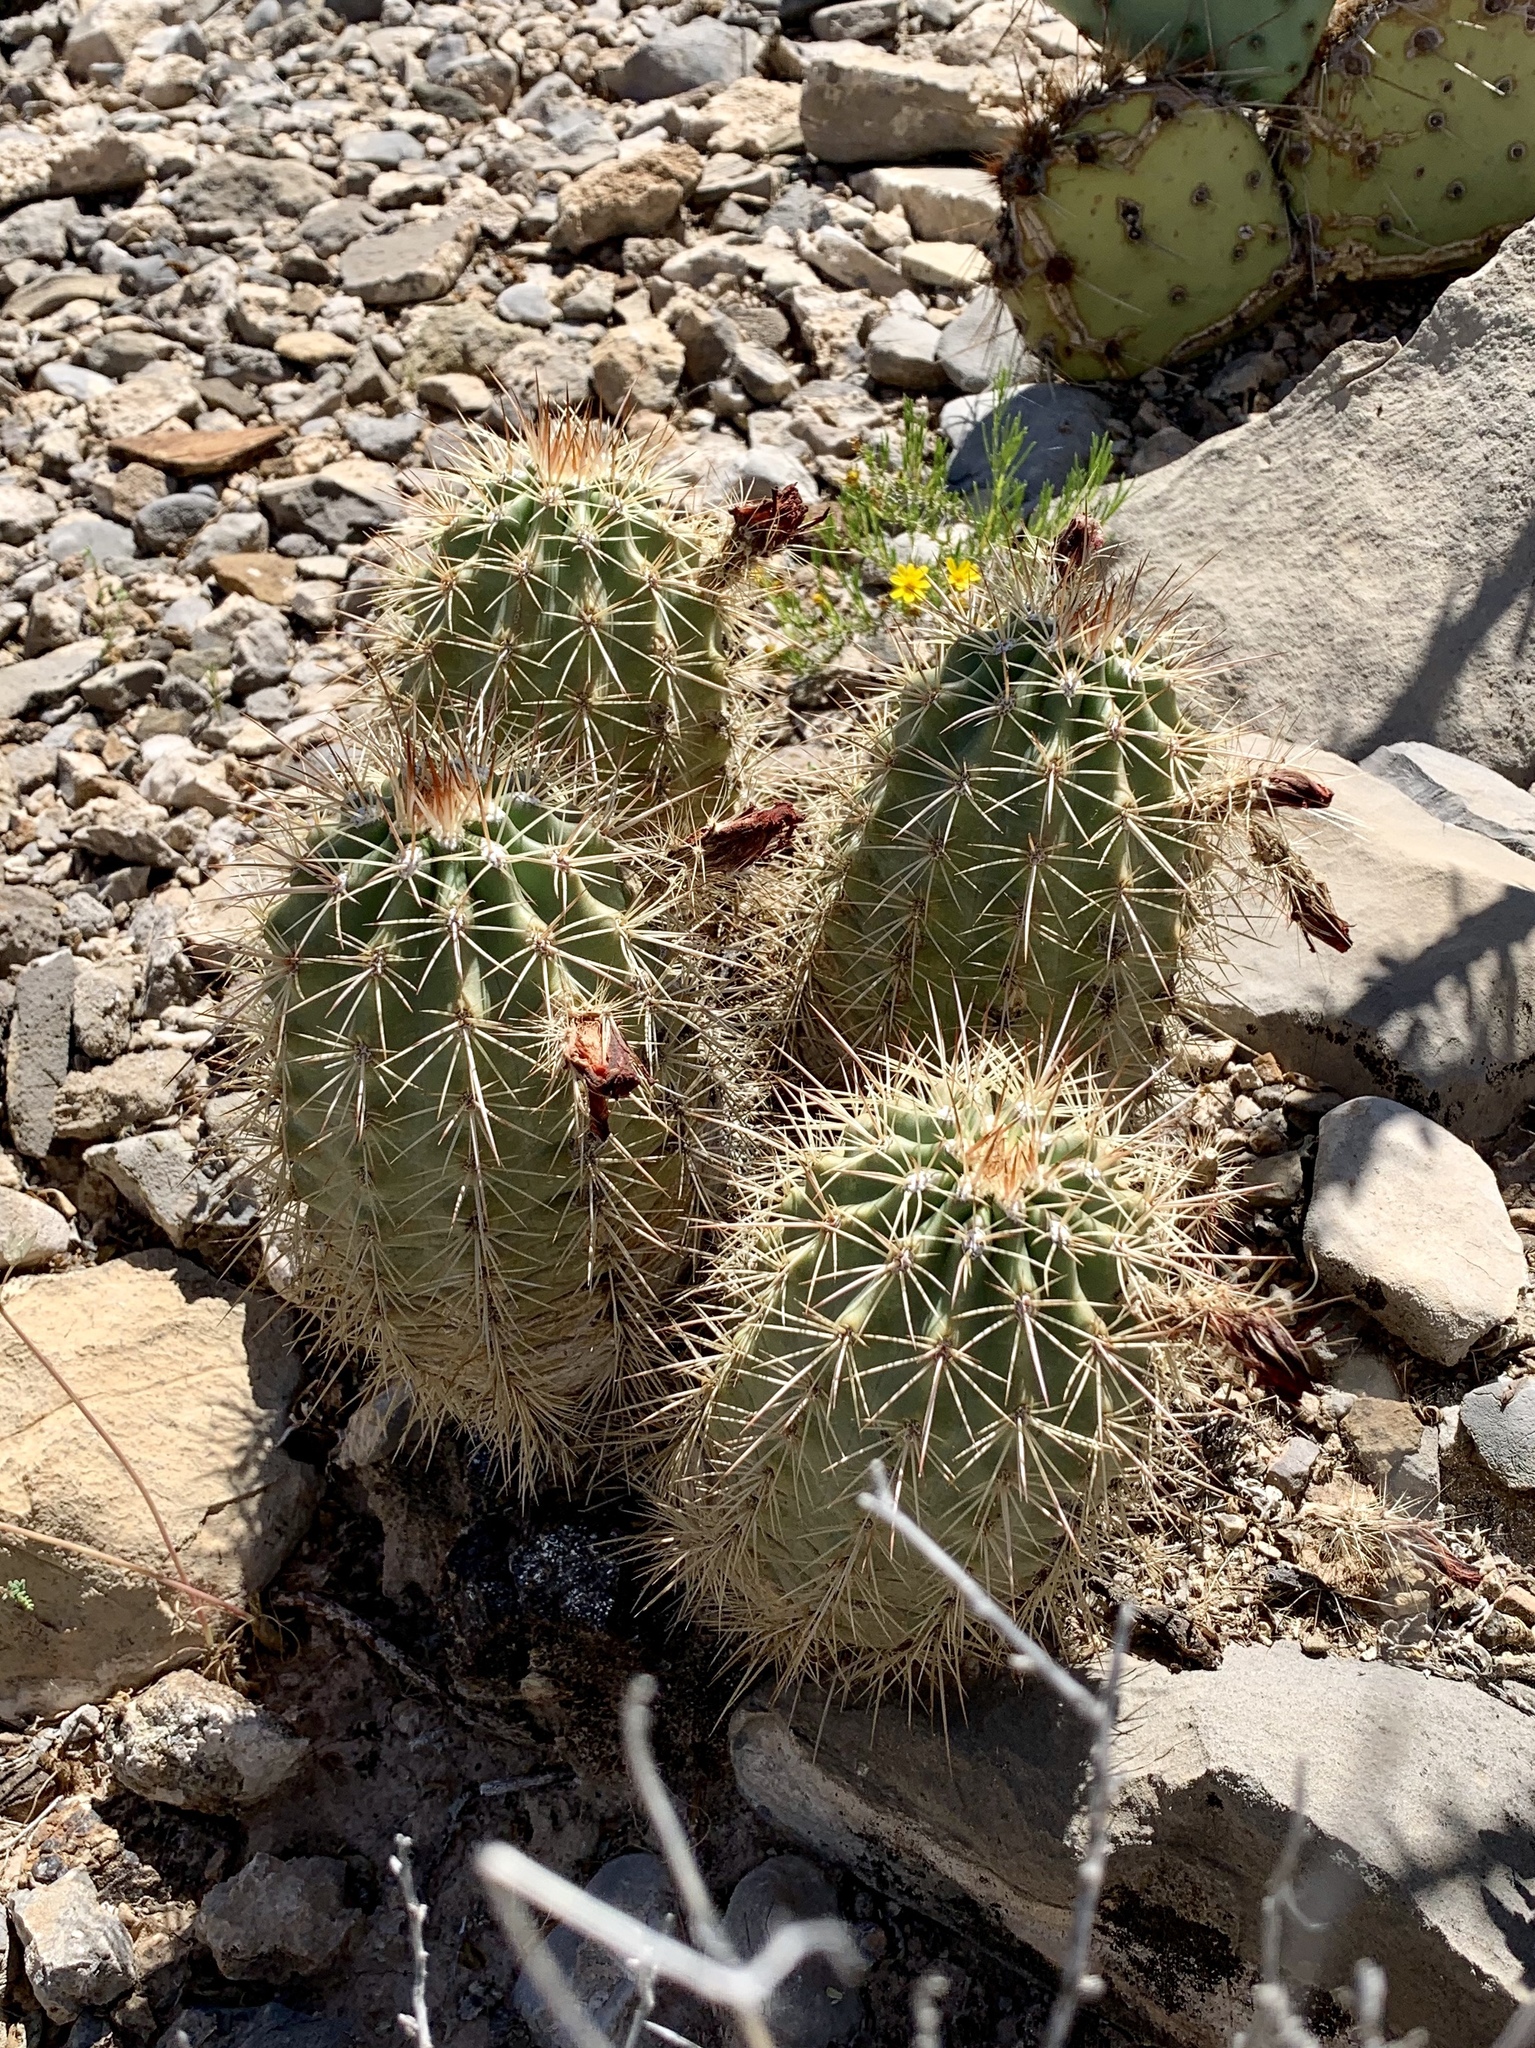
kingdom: Plantae
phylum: Tracheophyta
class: Magnoliopsida
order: Caryophyllales
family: Cactaceae
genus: Echinocereus
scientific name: Echinocereus coccineus
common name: Scarlet hedgehog cactus
